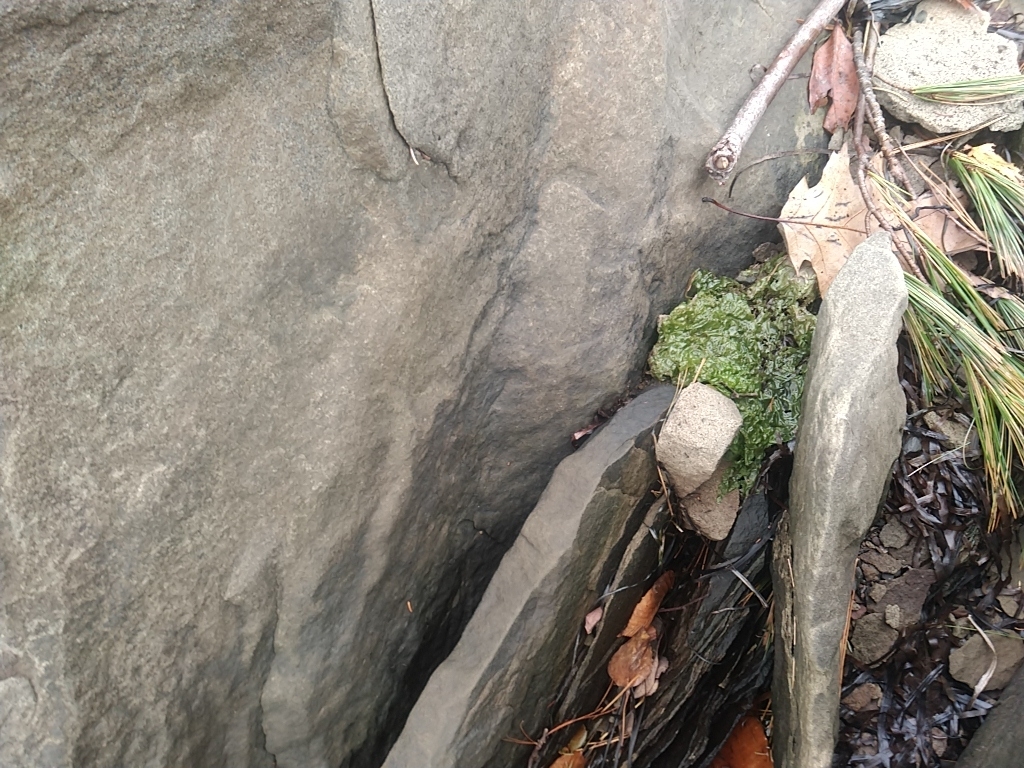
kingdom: Plantae
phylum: Chlorophyta
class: Ulvophyceae
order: Ulvales
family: Ulvaceae
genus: Ulva
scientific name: Ulva lactuca
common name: Sea lettuce
